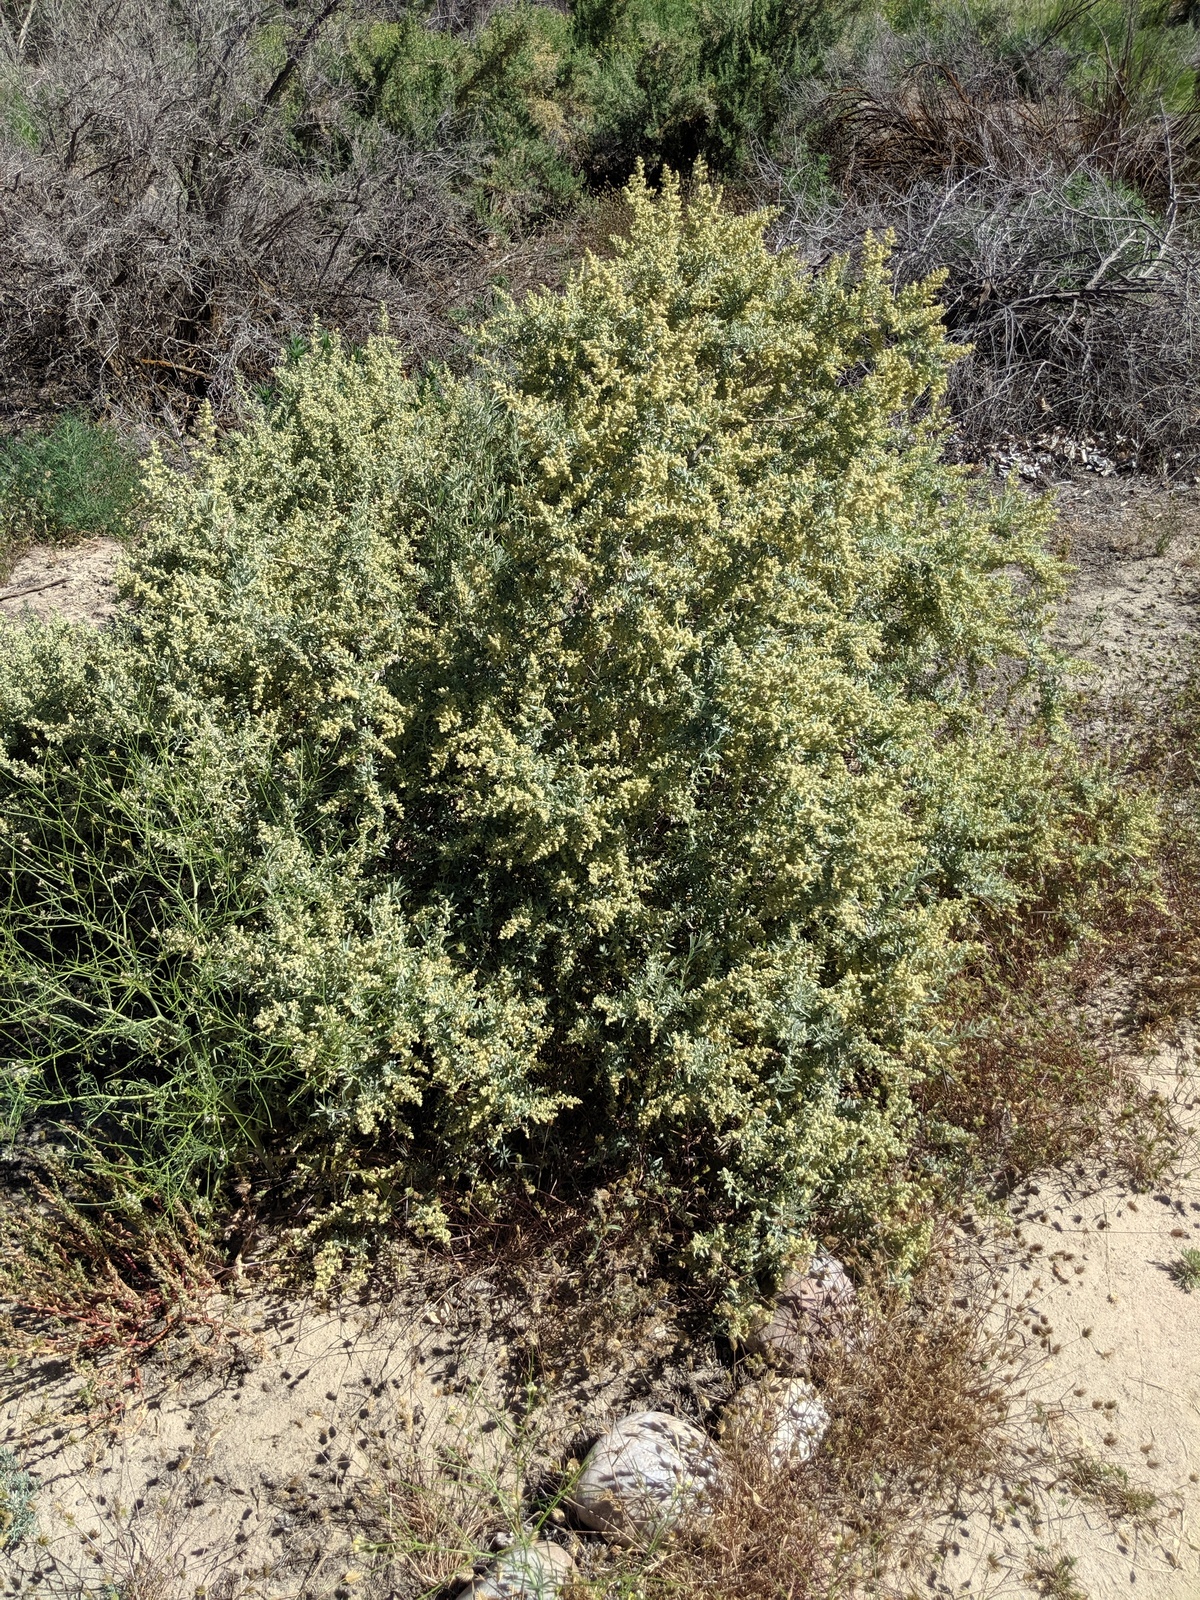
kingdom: Plantae
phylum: Tracheophyta
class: Magnoliopsida
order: Caryophyllales
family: Amaranthaceae
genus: Atriplex
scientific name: Atriplex canescens
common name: Four-wing saltbush
